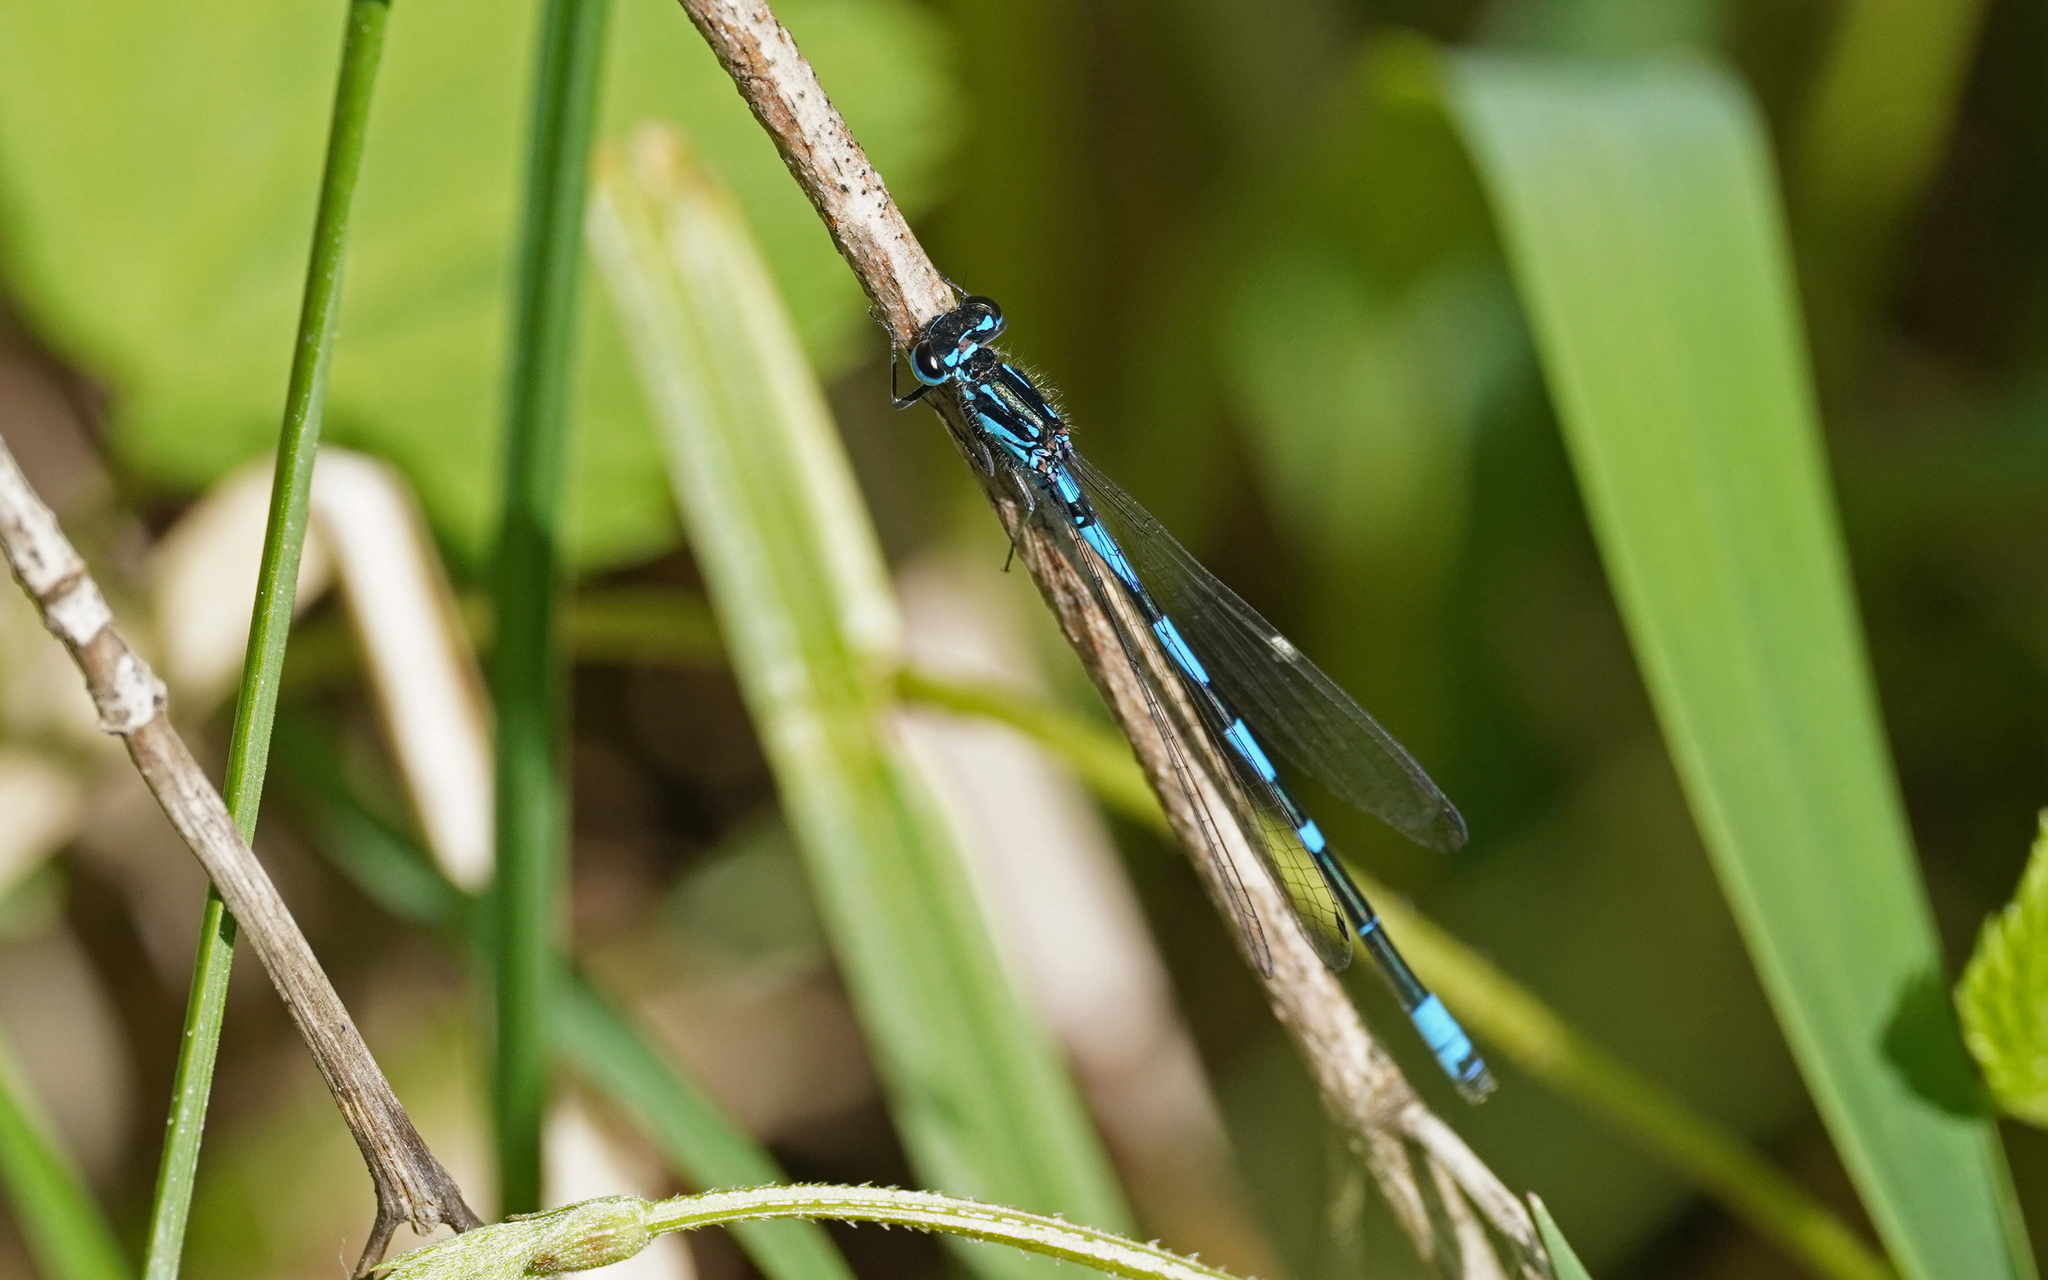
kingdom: Animalia
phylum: Arthropoda
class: Insecta
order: Odonata
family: Coenagrionidae
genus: Coenagrion
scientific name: Coenagrion pulchellum
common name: Variable bluet
